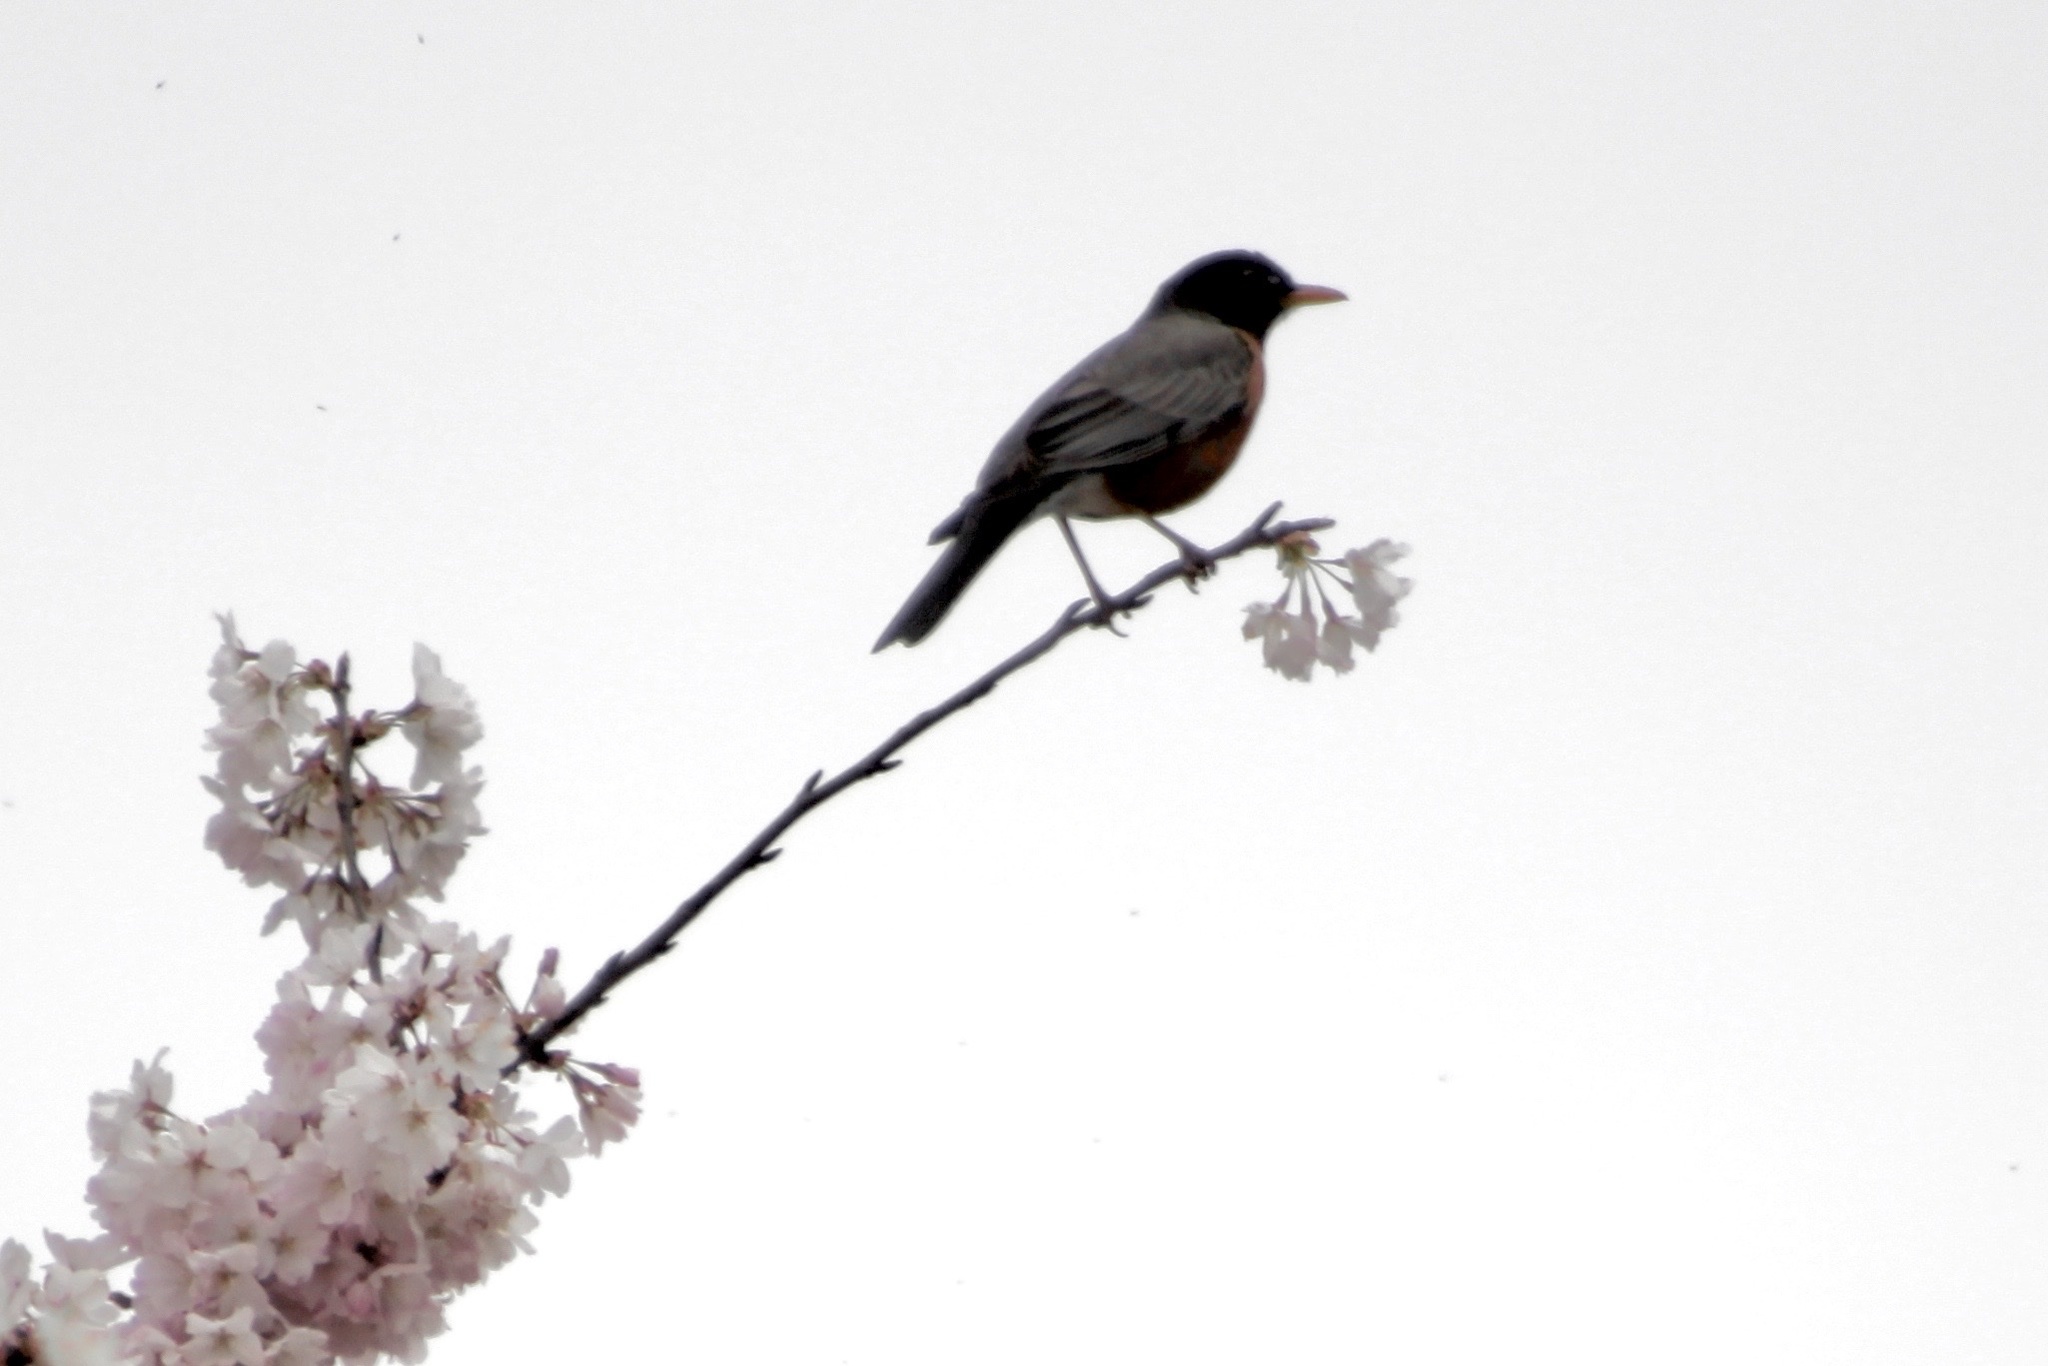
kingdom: Animalia
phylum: Chordata
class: Aves
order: Passeriformes
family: Turdidae
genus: Turdus
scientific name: Turdus migratorius
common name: American robin
